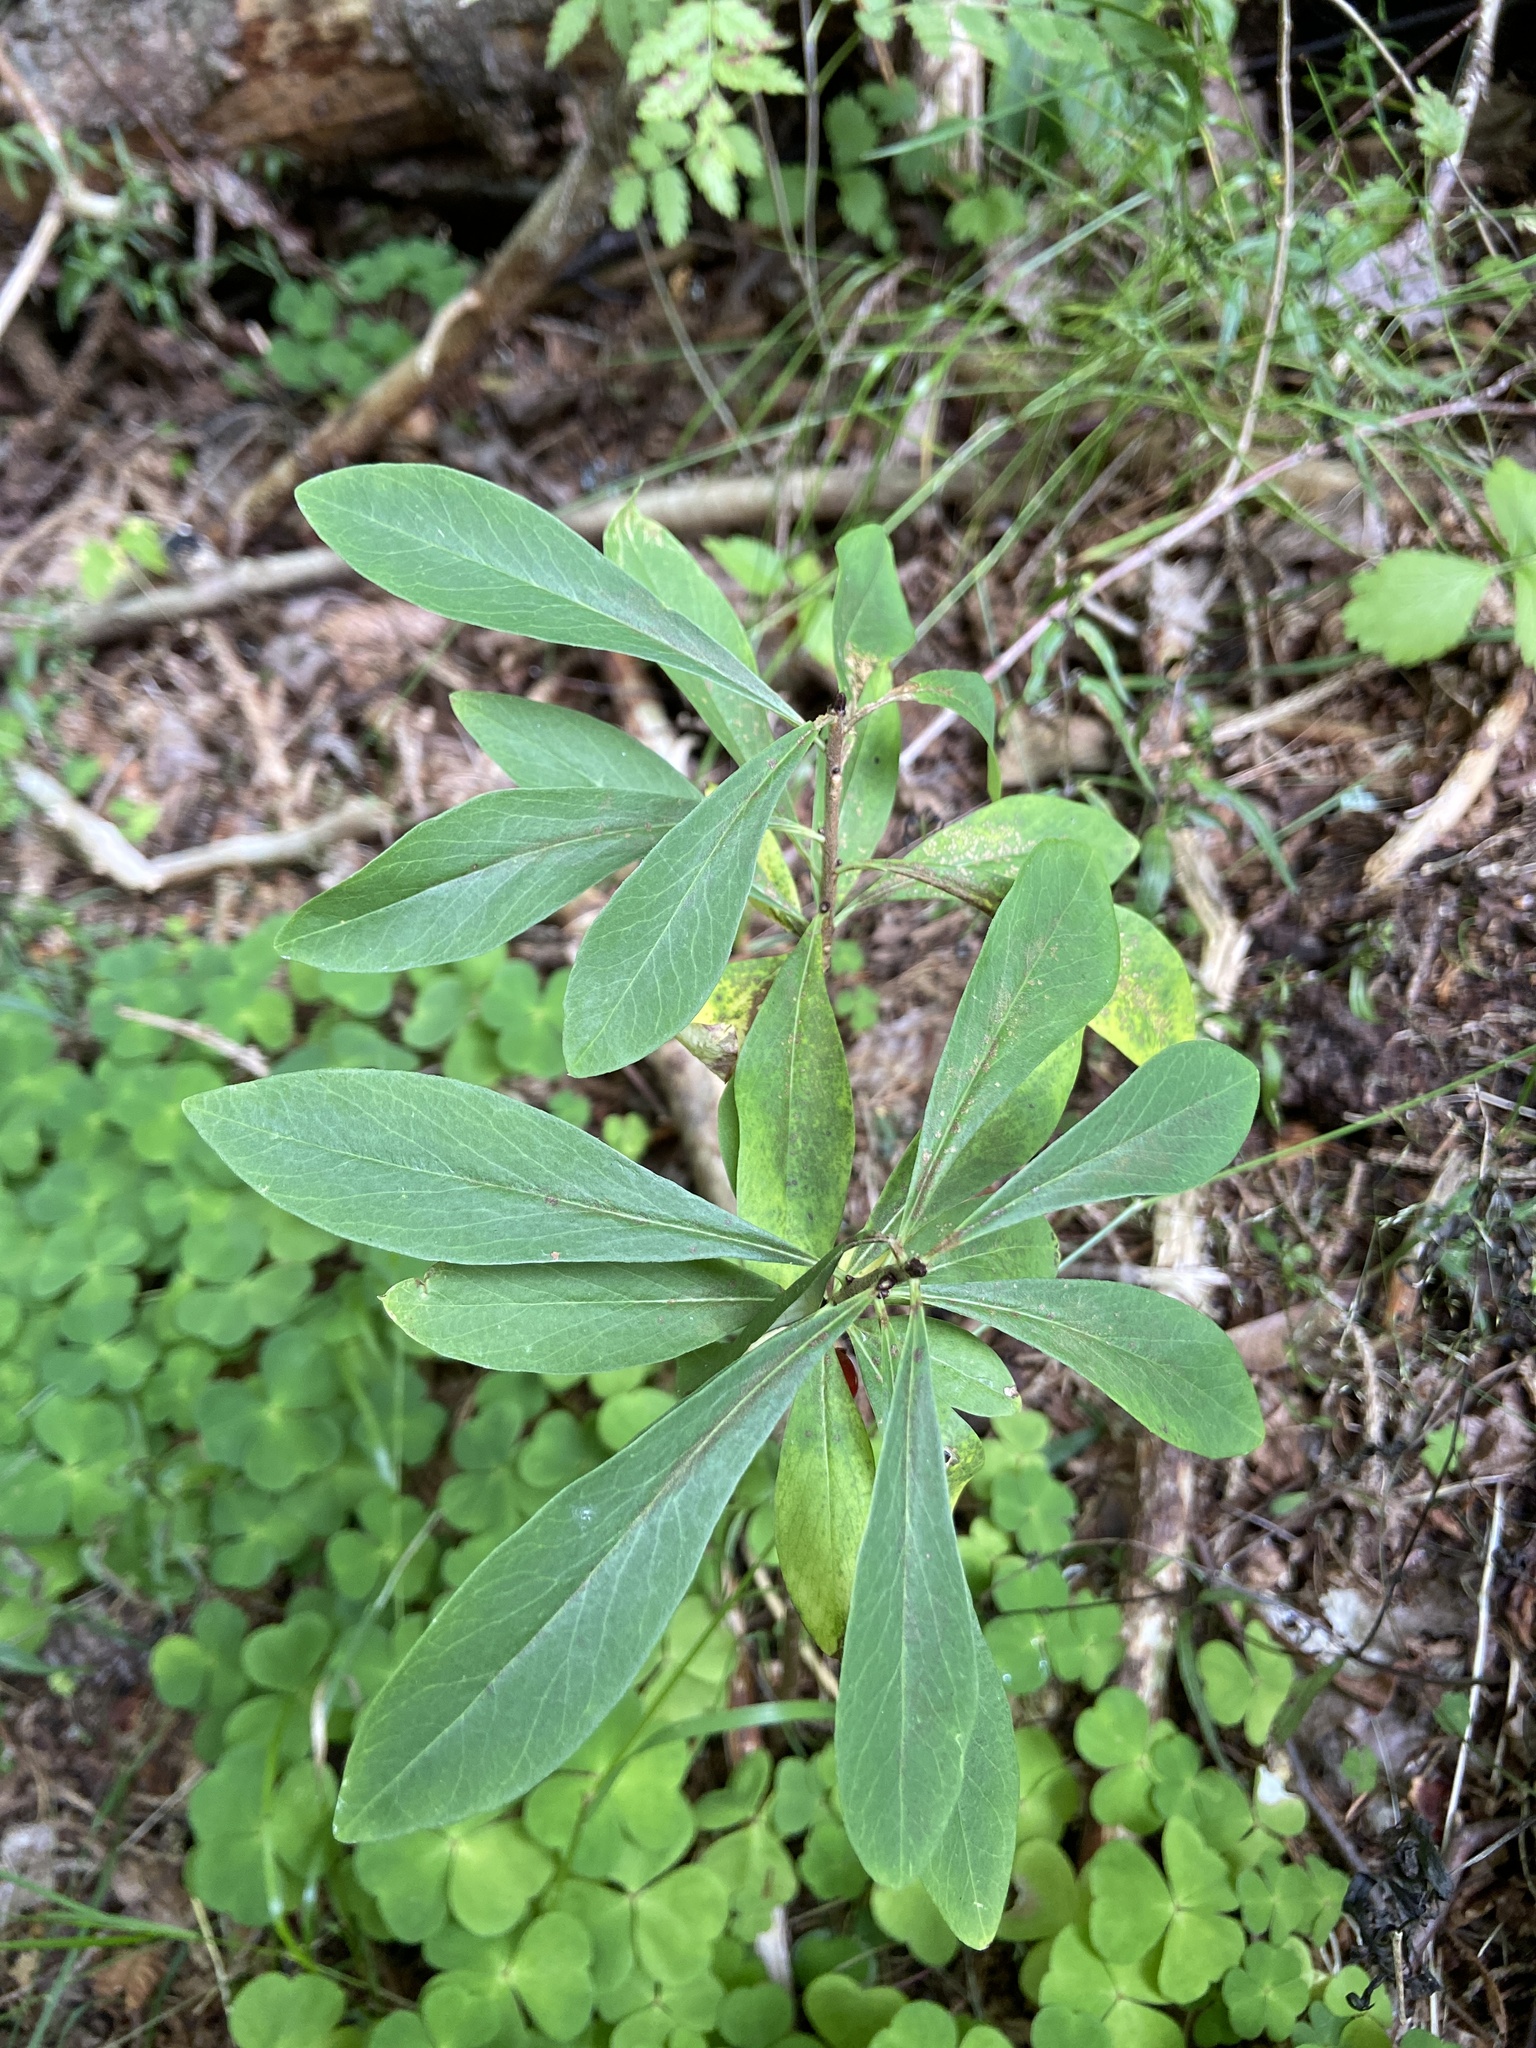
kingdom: Plantae
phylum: Tracheophyta
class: Magnoliopsida
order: Malvales
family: Thymelaeaceae
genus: Daphne
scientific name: Daphne mezereum
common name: Mezereon
